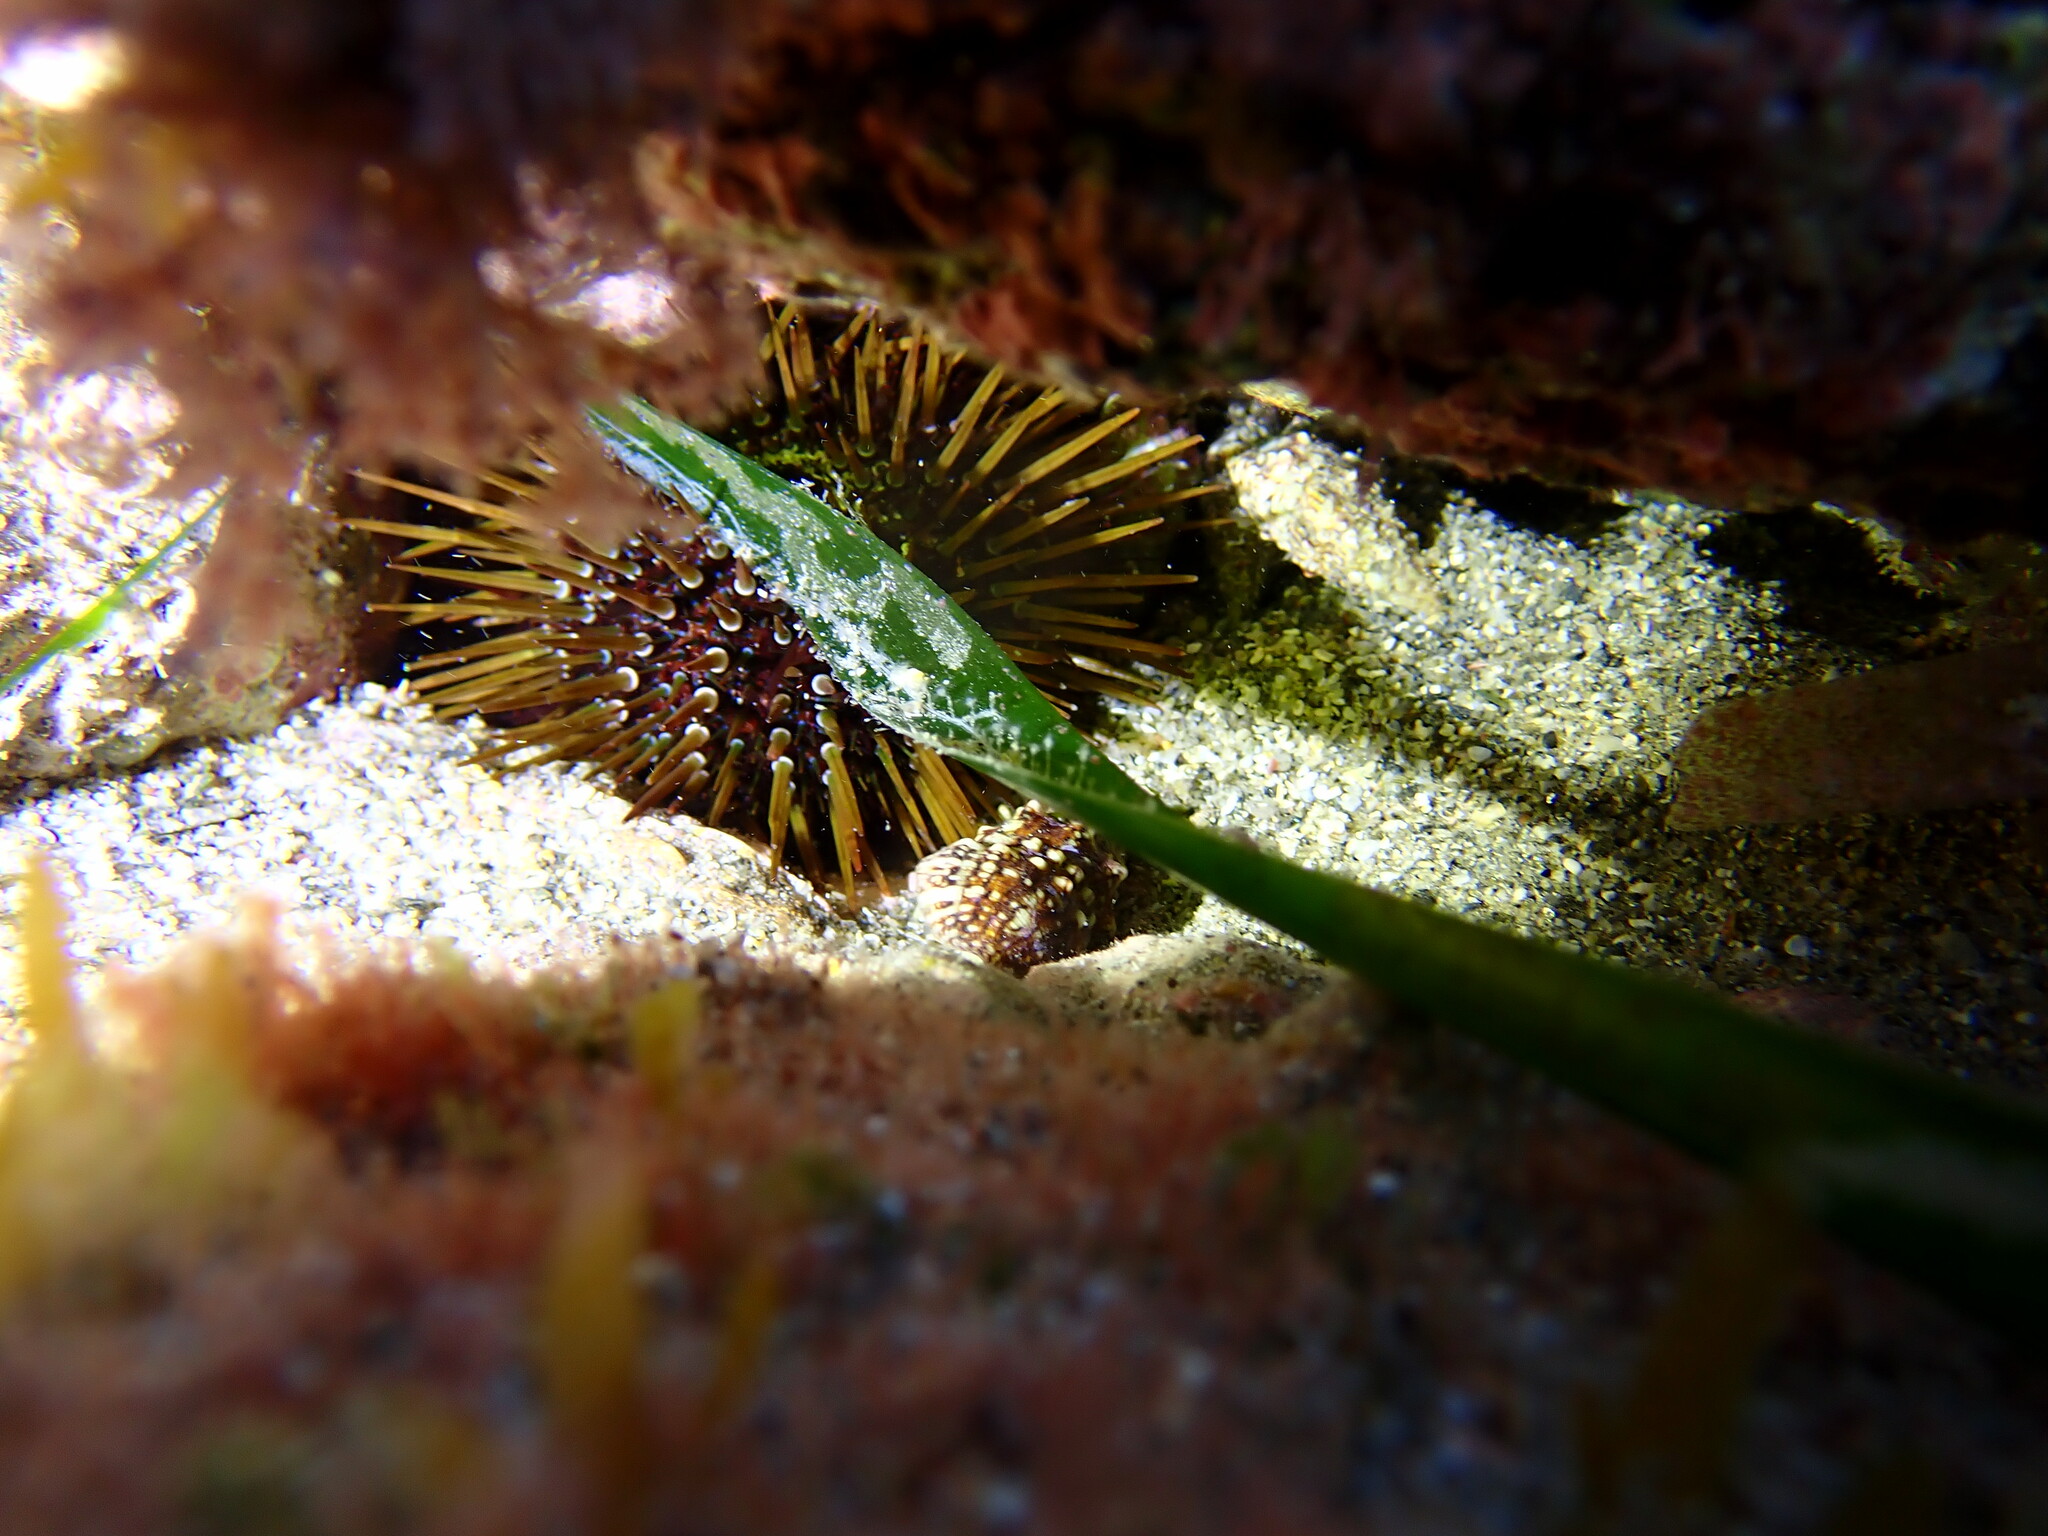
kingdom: Animalia
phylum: Echinodermata
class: Echinoidea
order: Camarodonta
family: Parechinidae
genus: Paracentrotus
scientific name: Paracentrotus lividus
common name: Purple sea urchin
